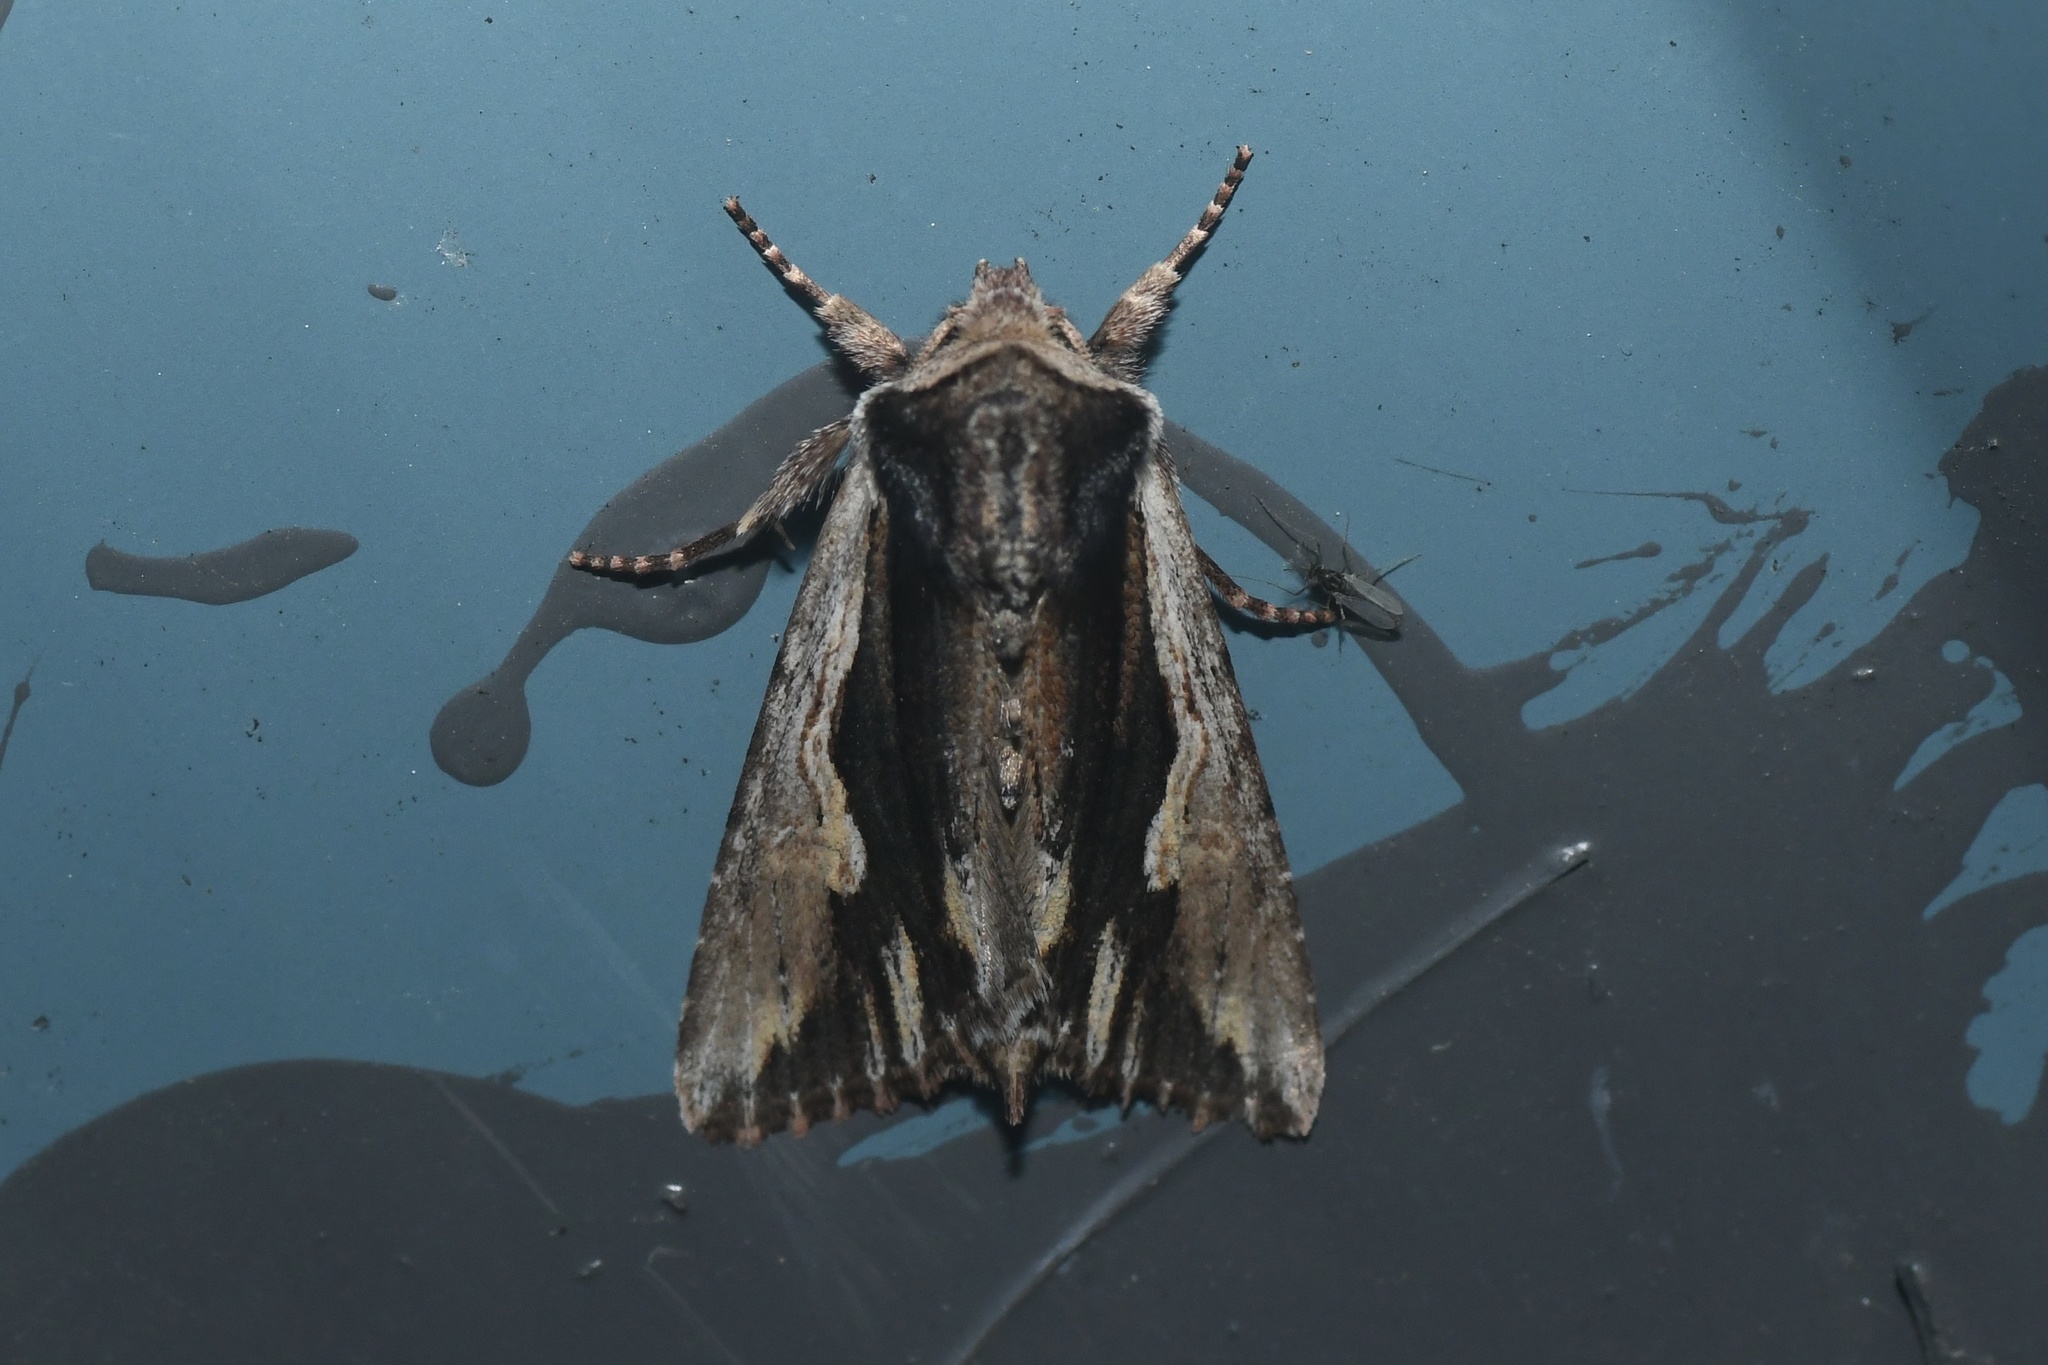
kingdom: Animalia
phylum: Arthropoda
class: Insecta
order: Lepidoptera
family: Noctuidae
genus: Achatia
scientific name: Achatia evicta
